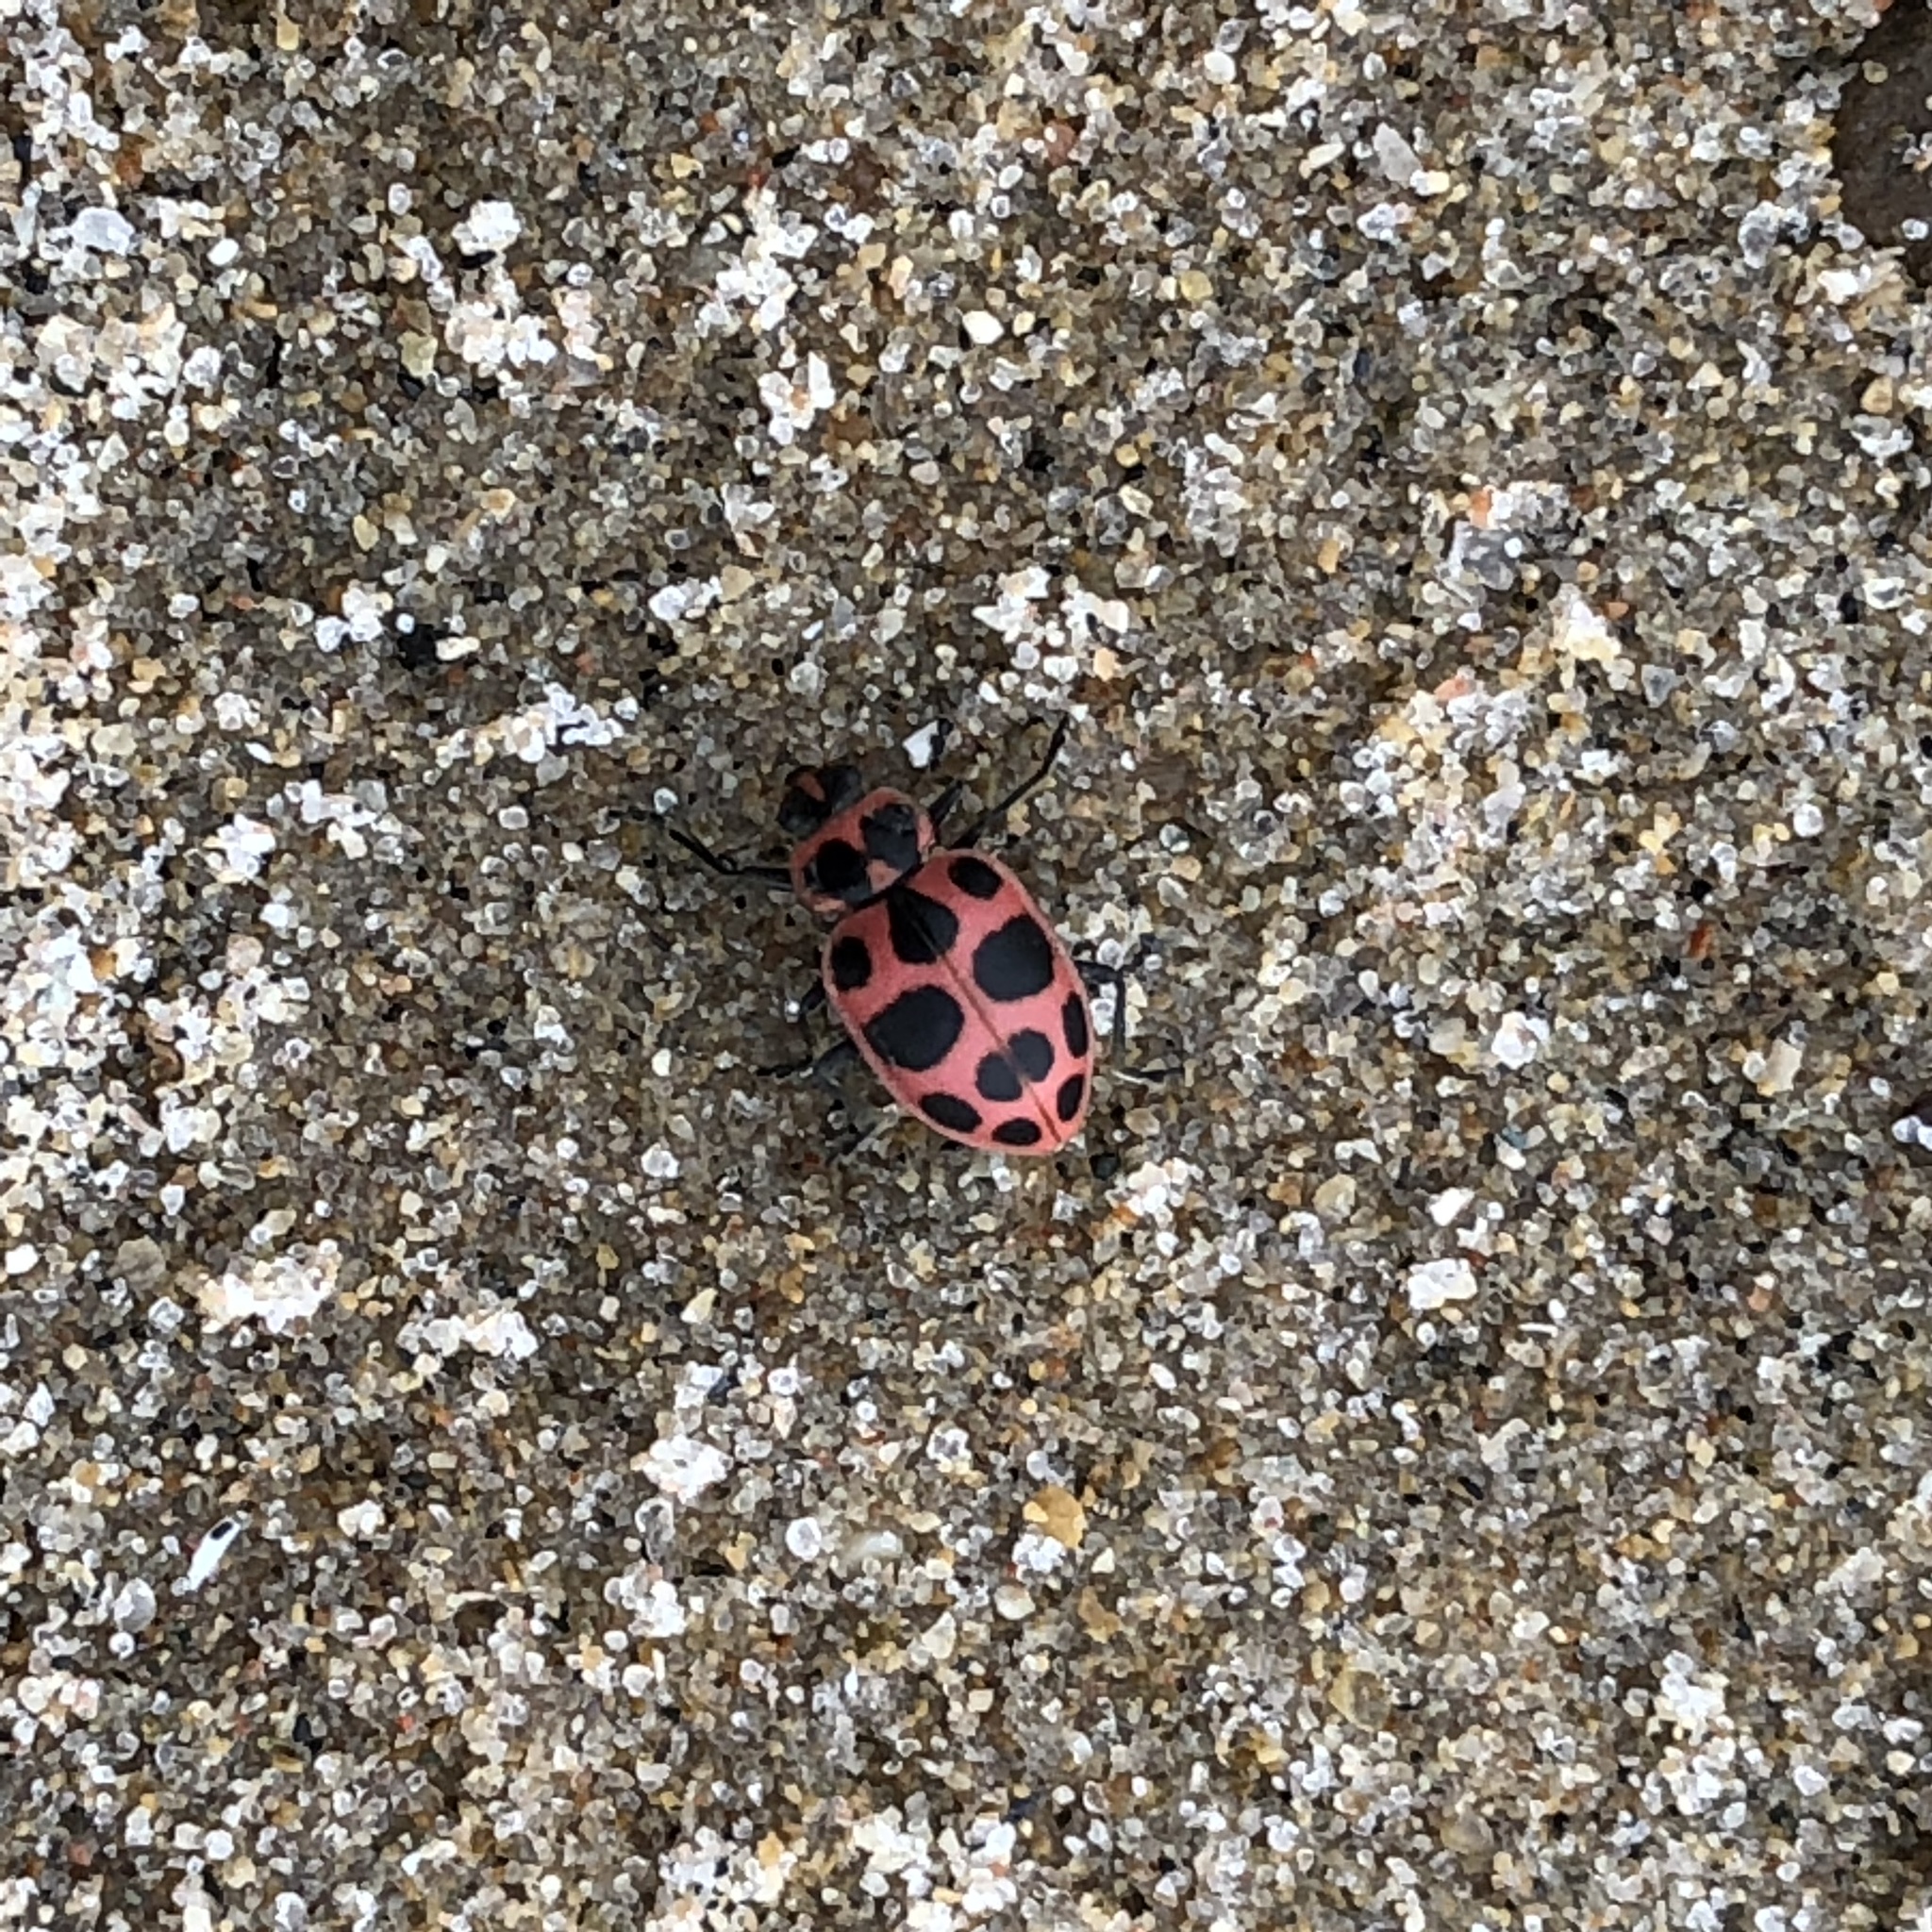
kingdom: Animalia
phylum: Arthropoda
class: Insecta
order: Coleoptera
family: Coccinellidae
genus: Coleomegilla
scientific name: Coleomegilla maculata
